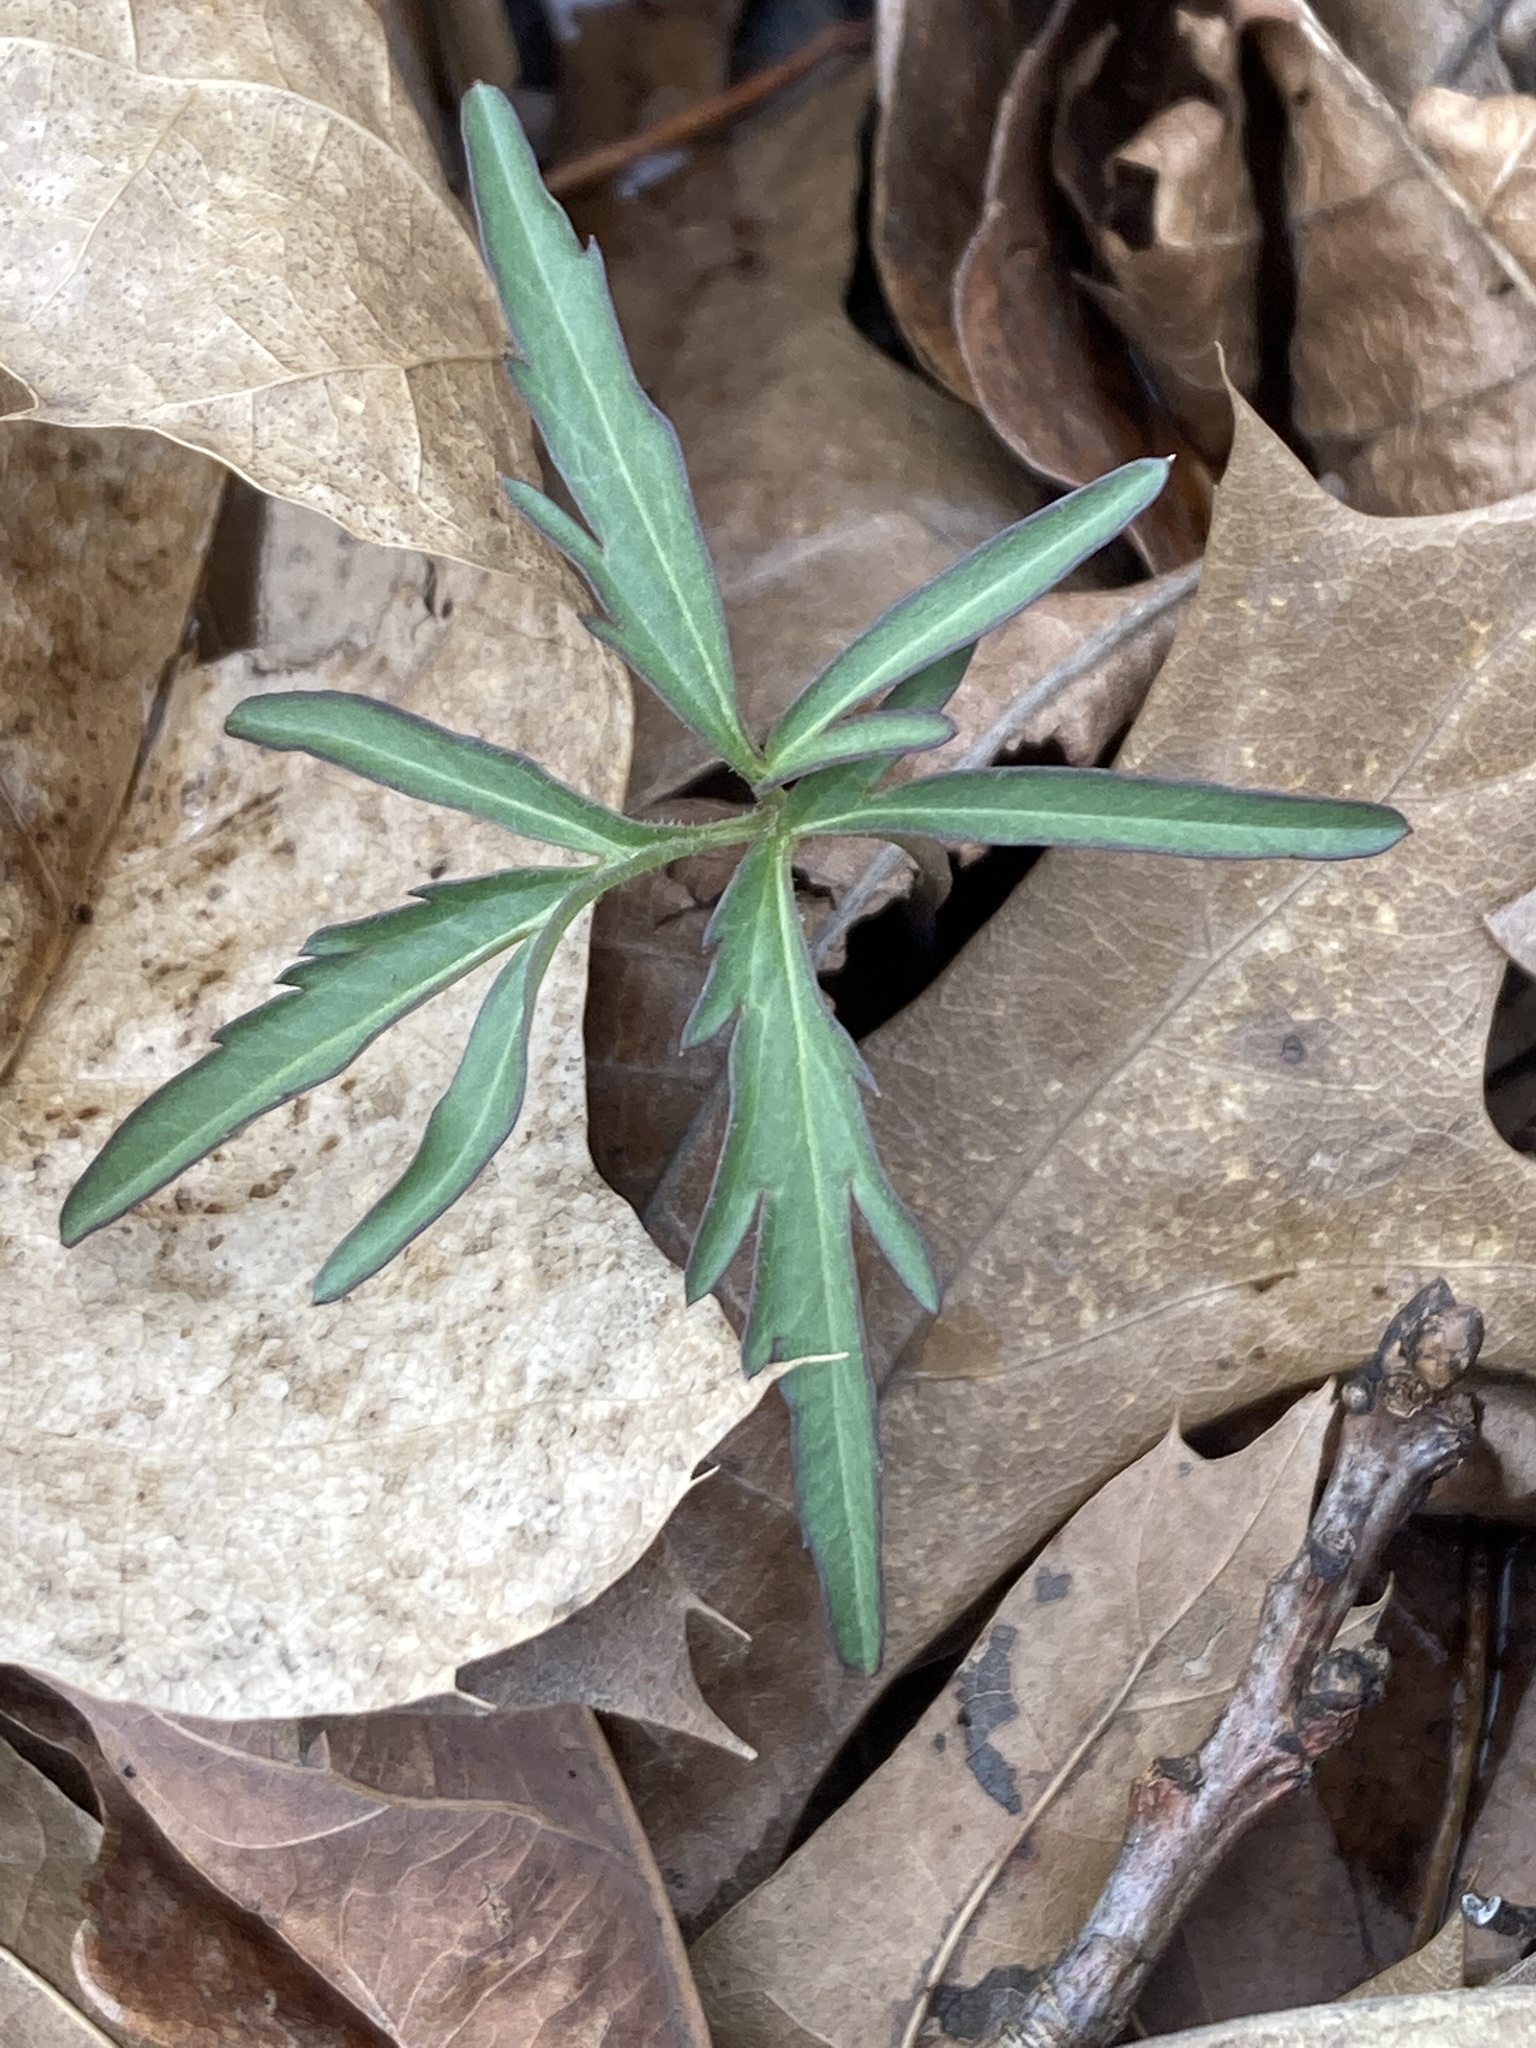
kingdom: Plantae
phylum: Tracheophyta
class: Magnoliopsida
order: Brassicales
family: Brassicaceae
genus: Cardamine
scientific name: Cardamine concatenata
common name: Cut-leaf toothcup
